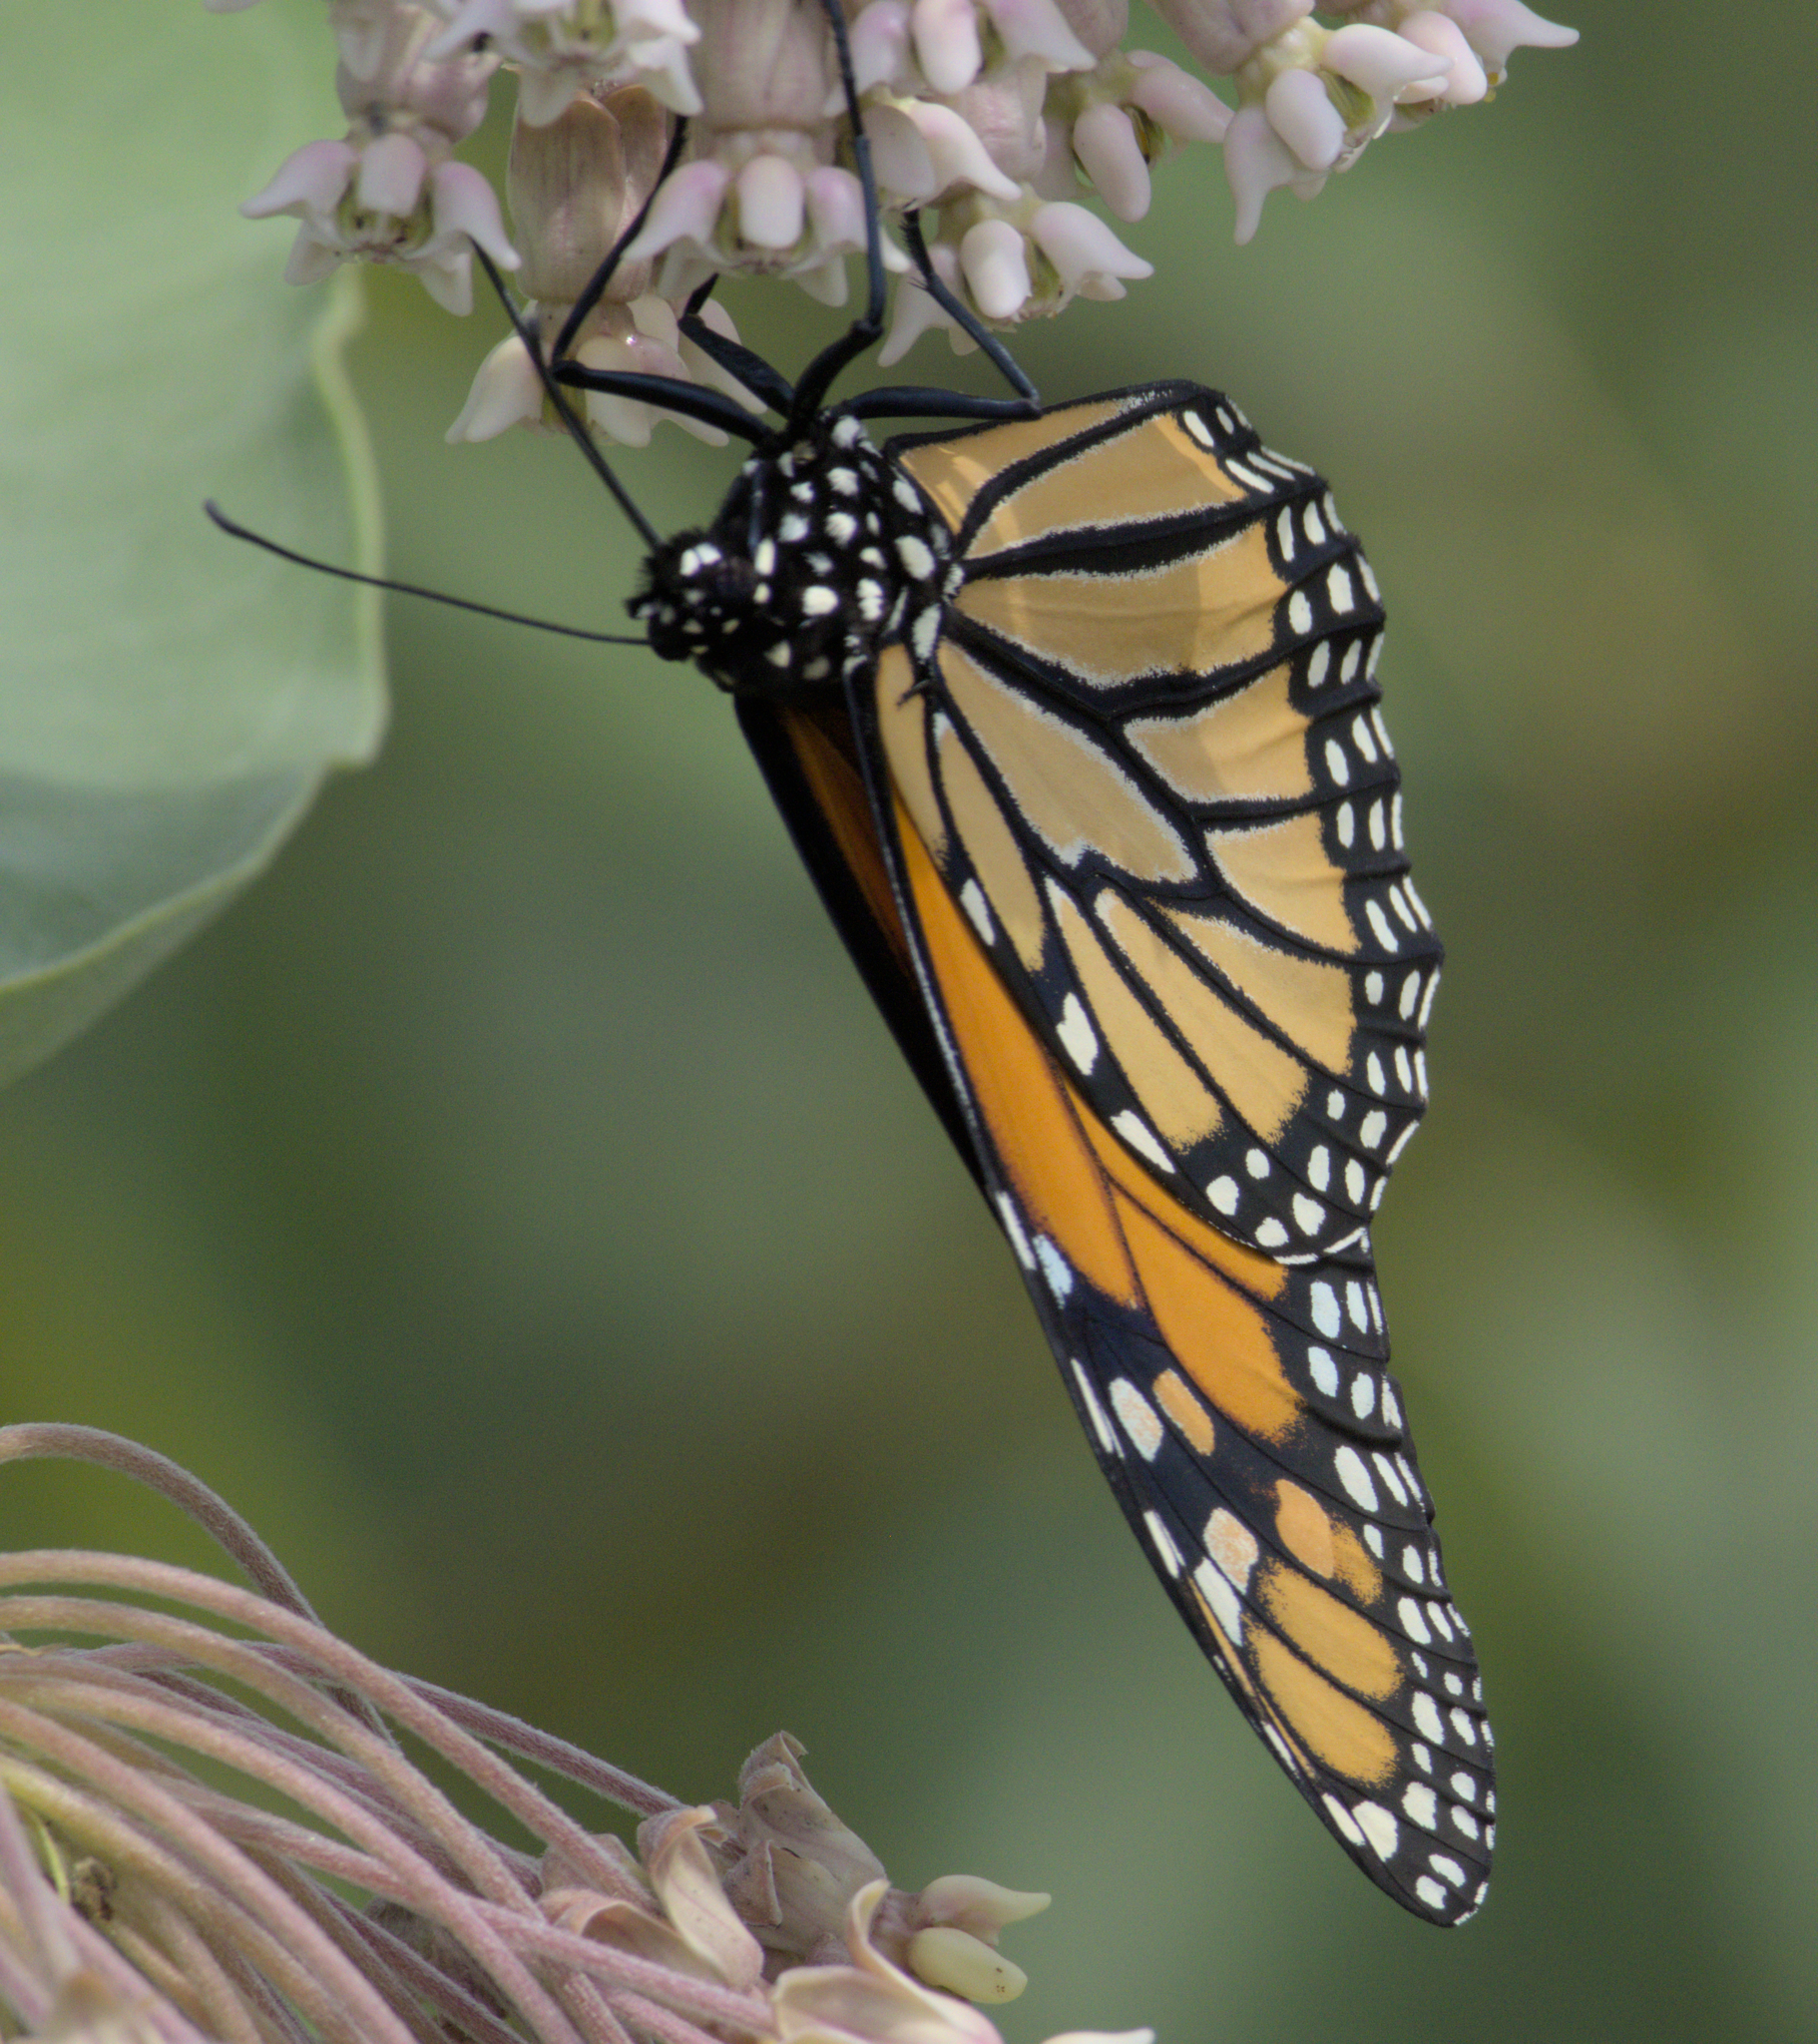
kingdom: Animalia
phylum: Arthropoda
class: Insecta
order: Lepidoptera
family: Nymphalidae
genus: Danaus
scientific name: Danaus plexippus
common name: Monarch
